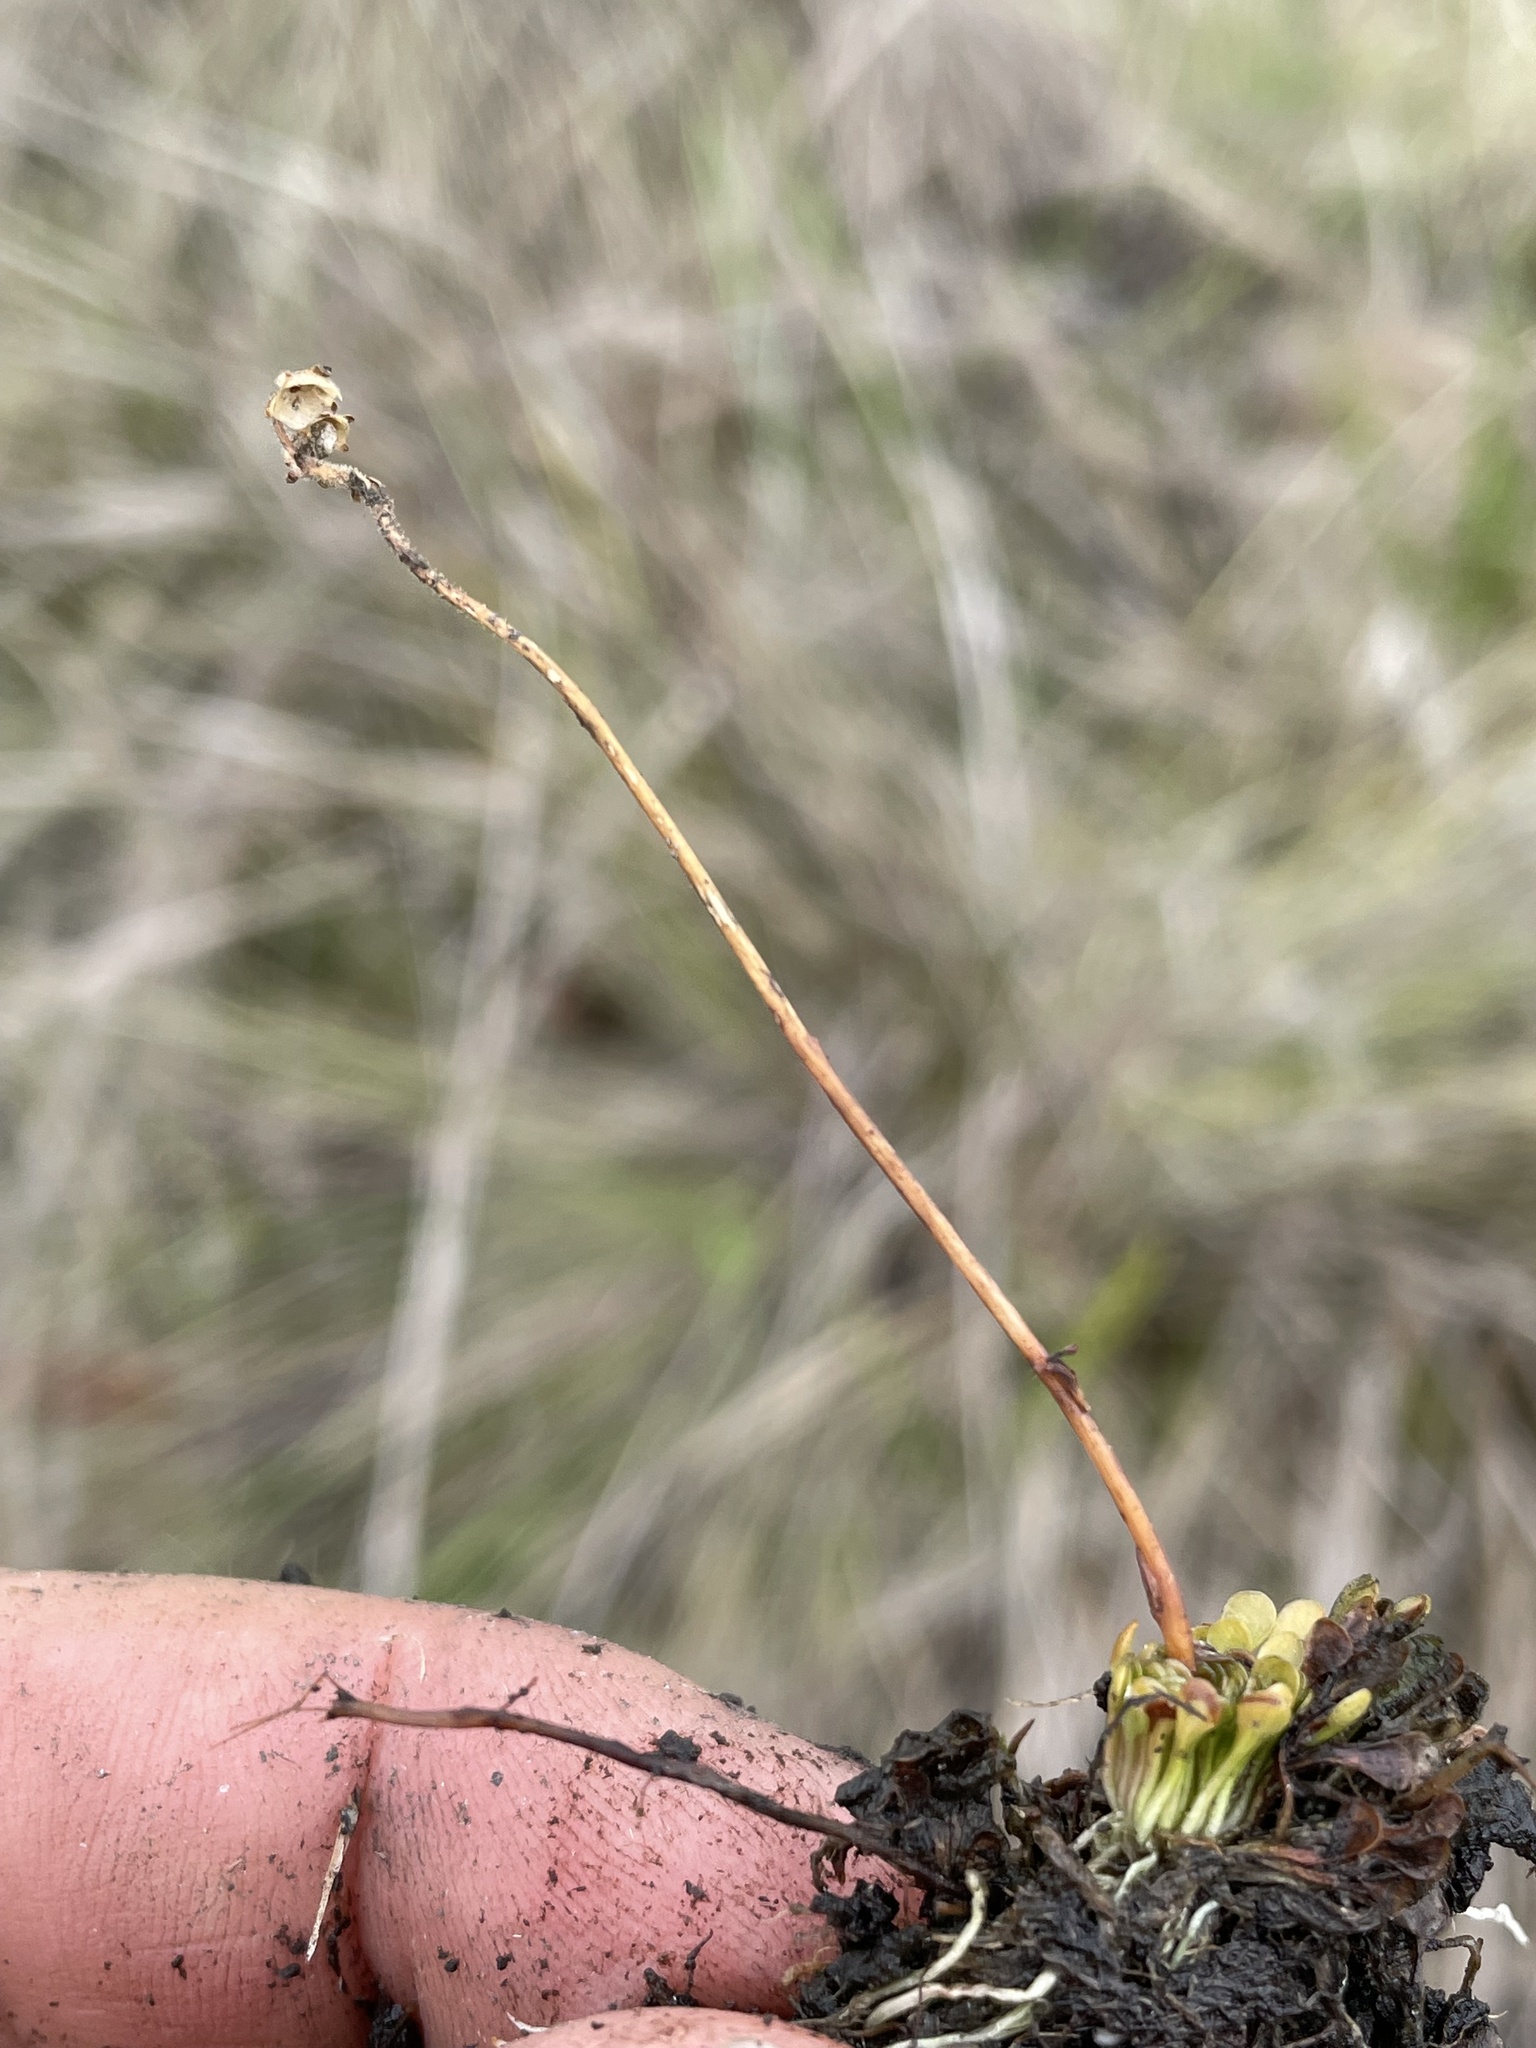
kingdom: Plantae
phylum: Tracheophyta
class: Magnoliopsida
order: Lamiales
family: Lentibulariaceae
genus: Genlisea
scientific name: Genlisea margaretae
